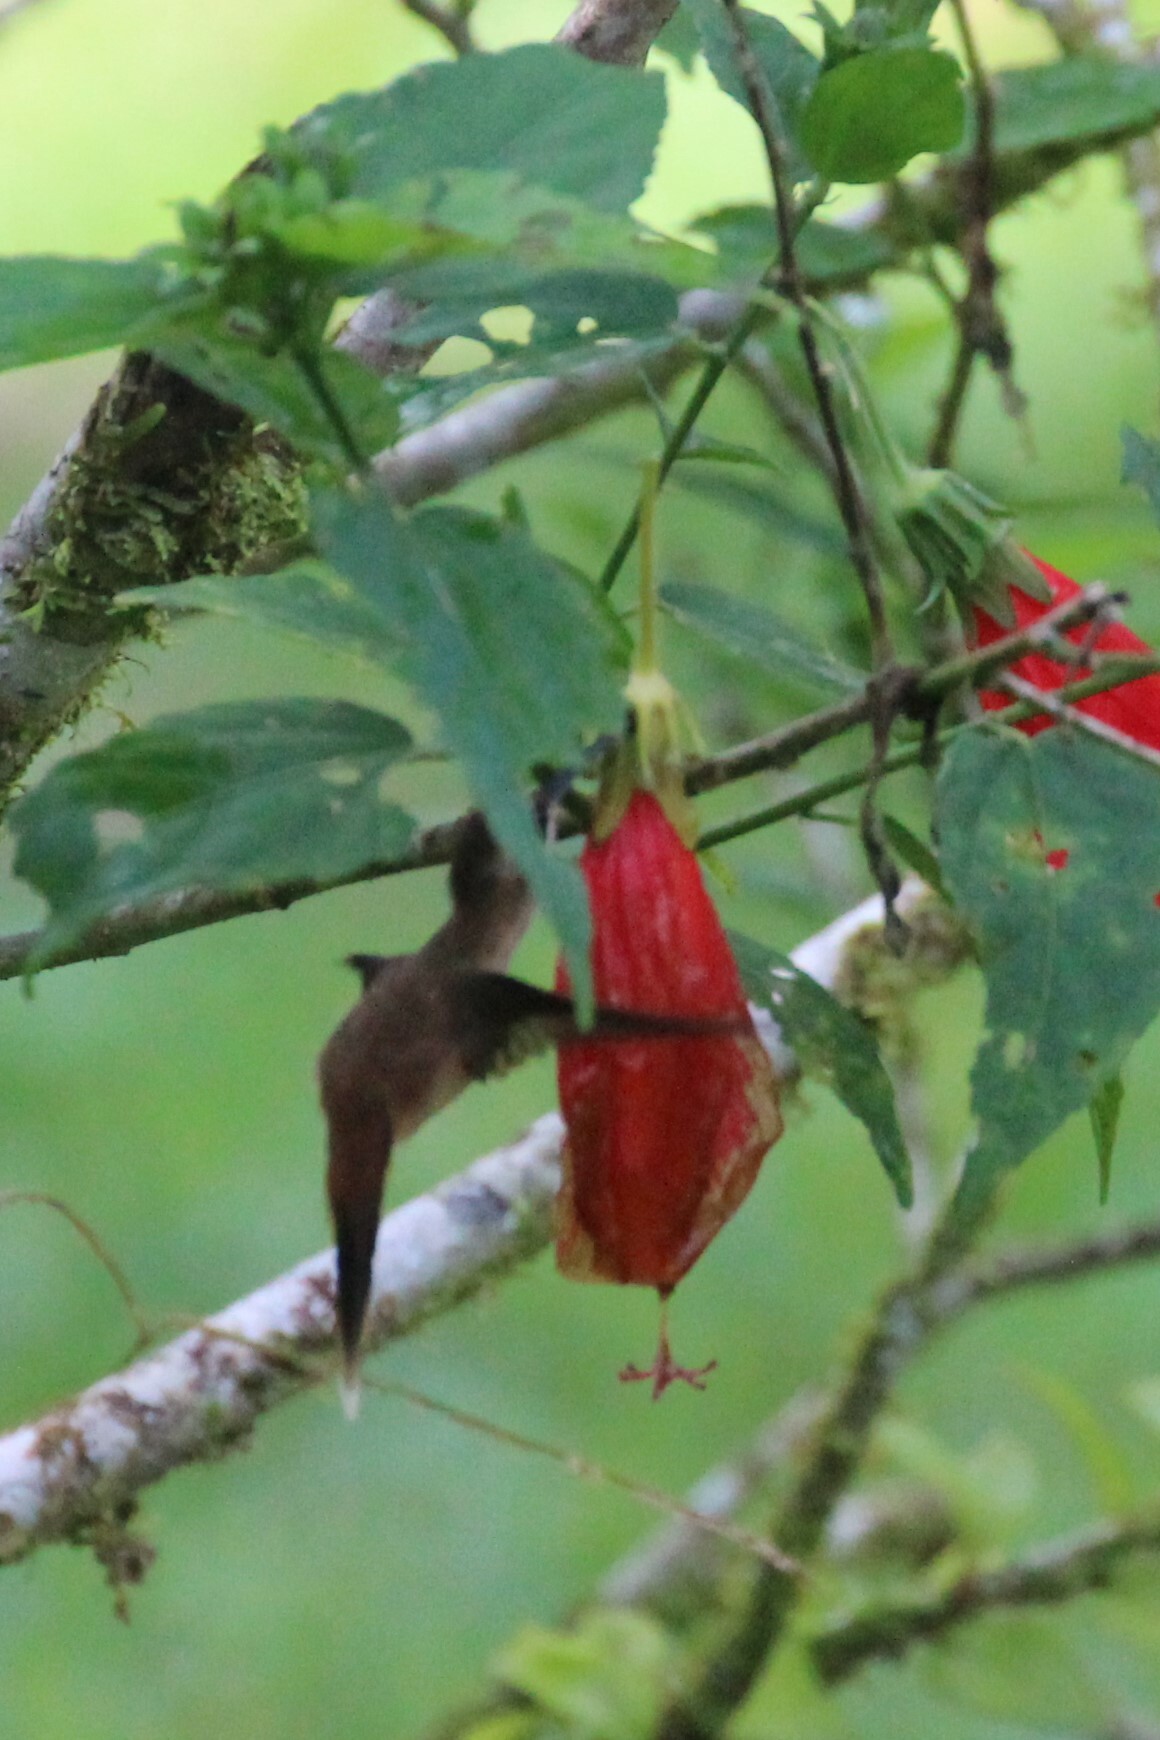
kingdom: Animalia
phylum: Chordata
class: Aves
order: Apodiformes
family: Trochilidae
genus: Phaethornis
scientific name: Phaethornis striigularis
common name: Stripe-throated hermit
